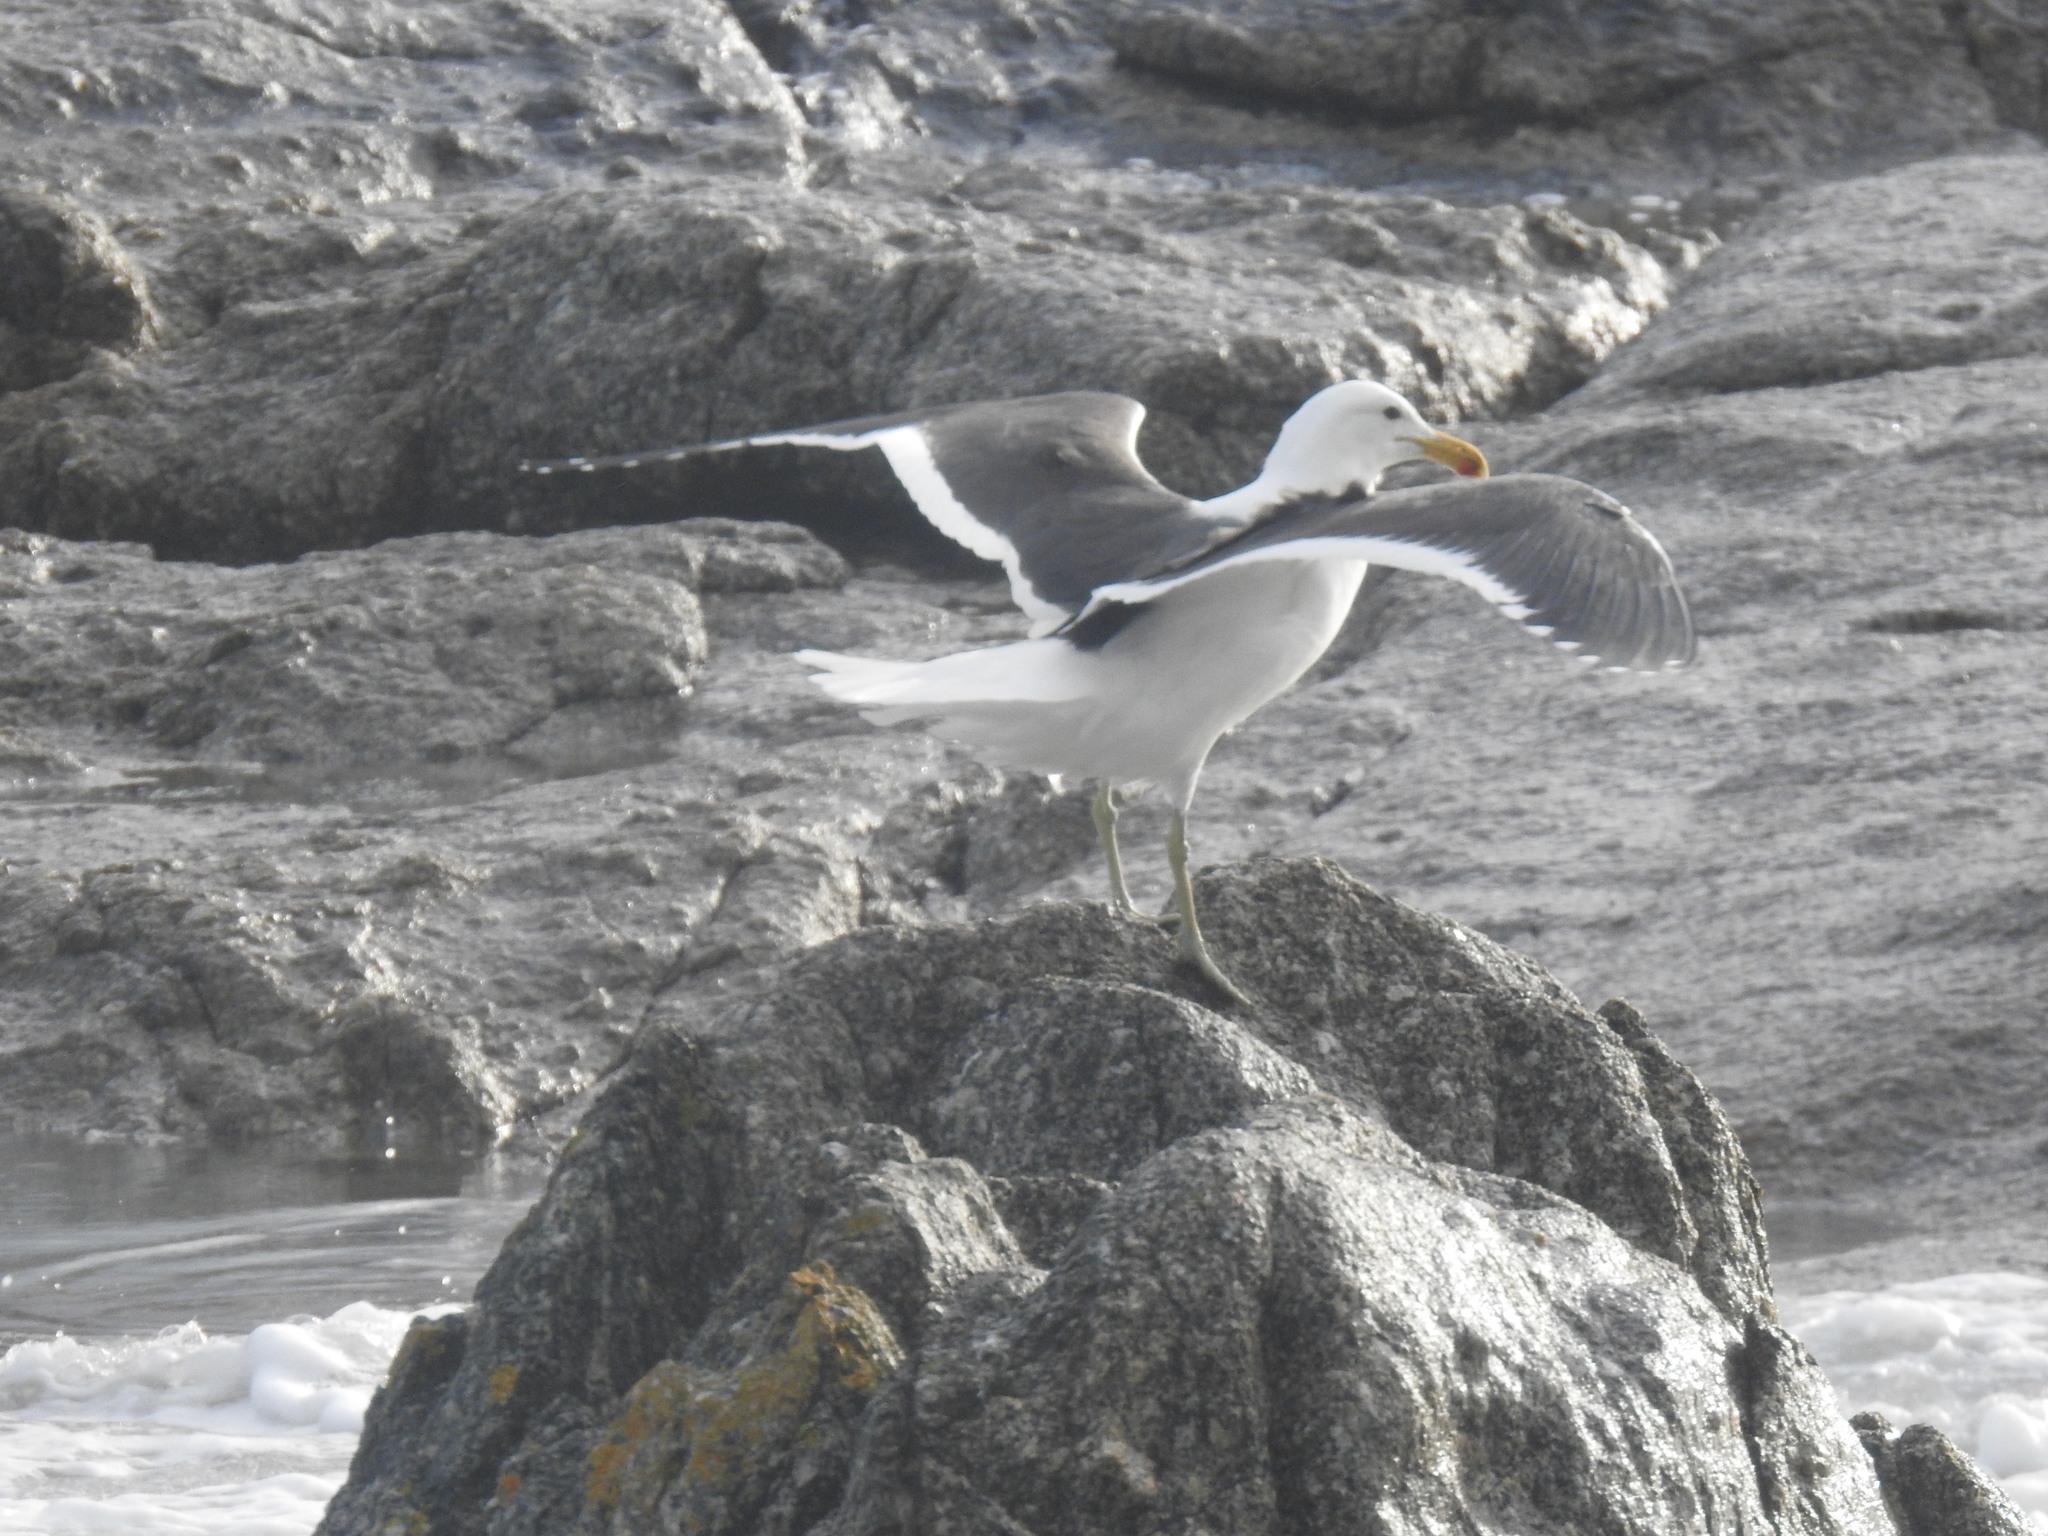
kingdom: Animalia
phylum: Chordata
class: Aves
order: Charadriiformes
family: Laridae
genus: Larus
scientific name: Larus dominicanus
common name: Kelp gull
